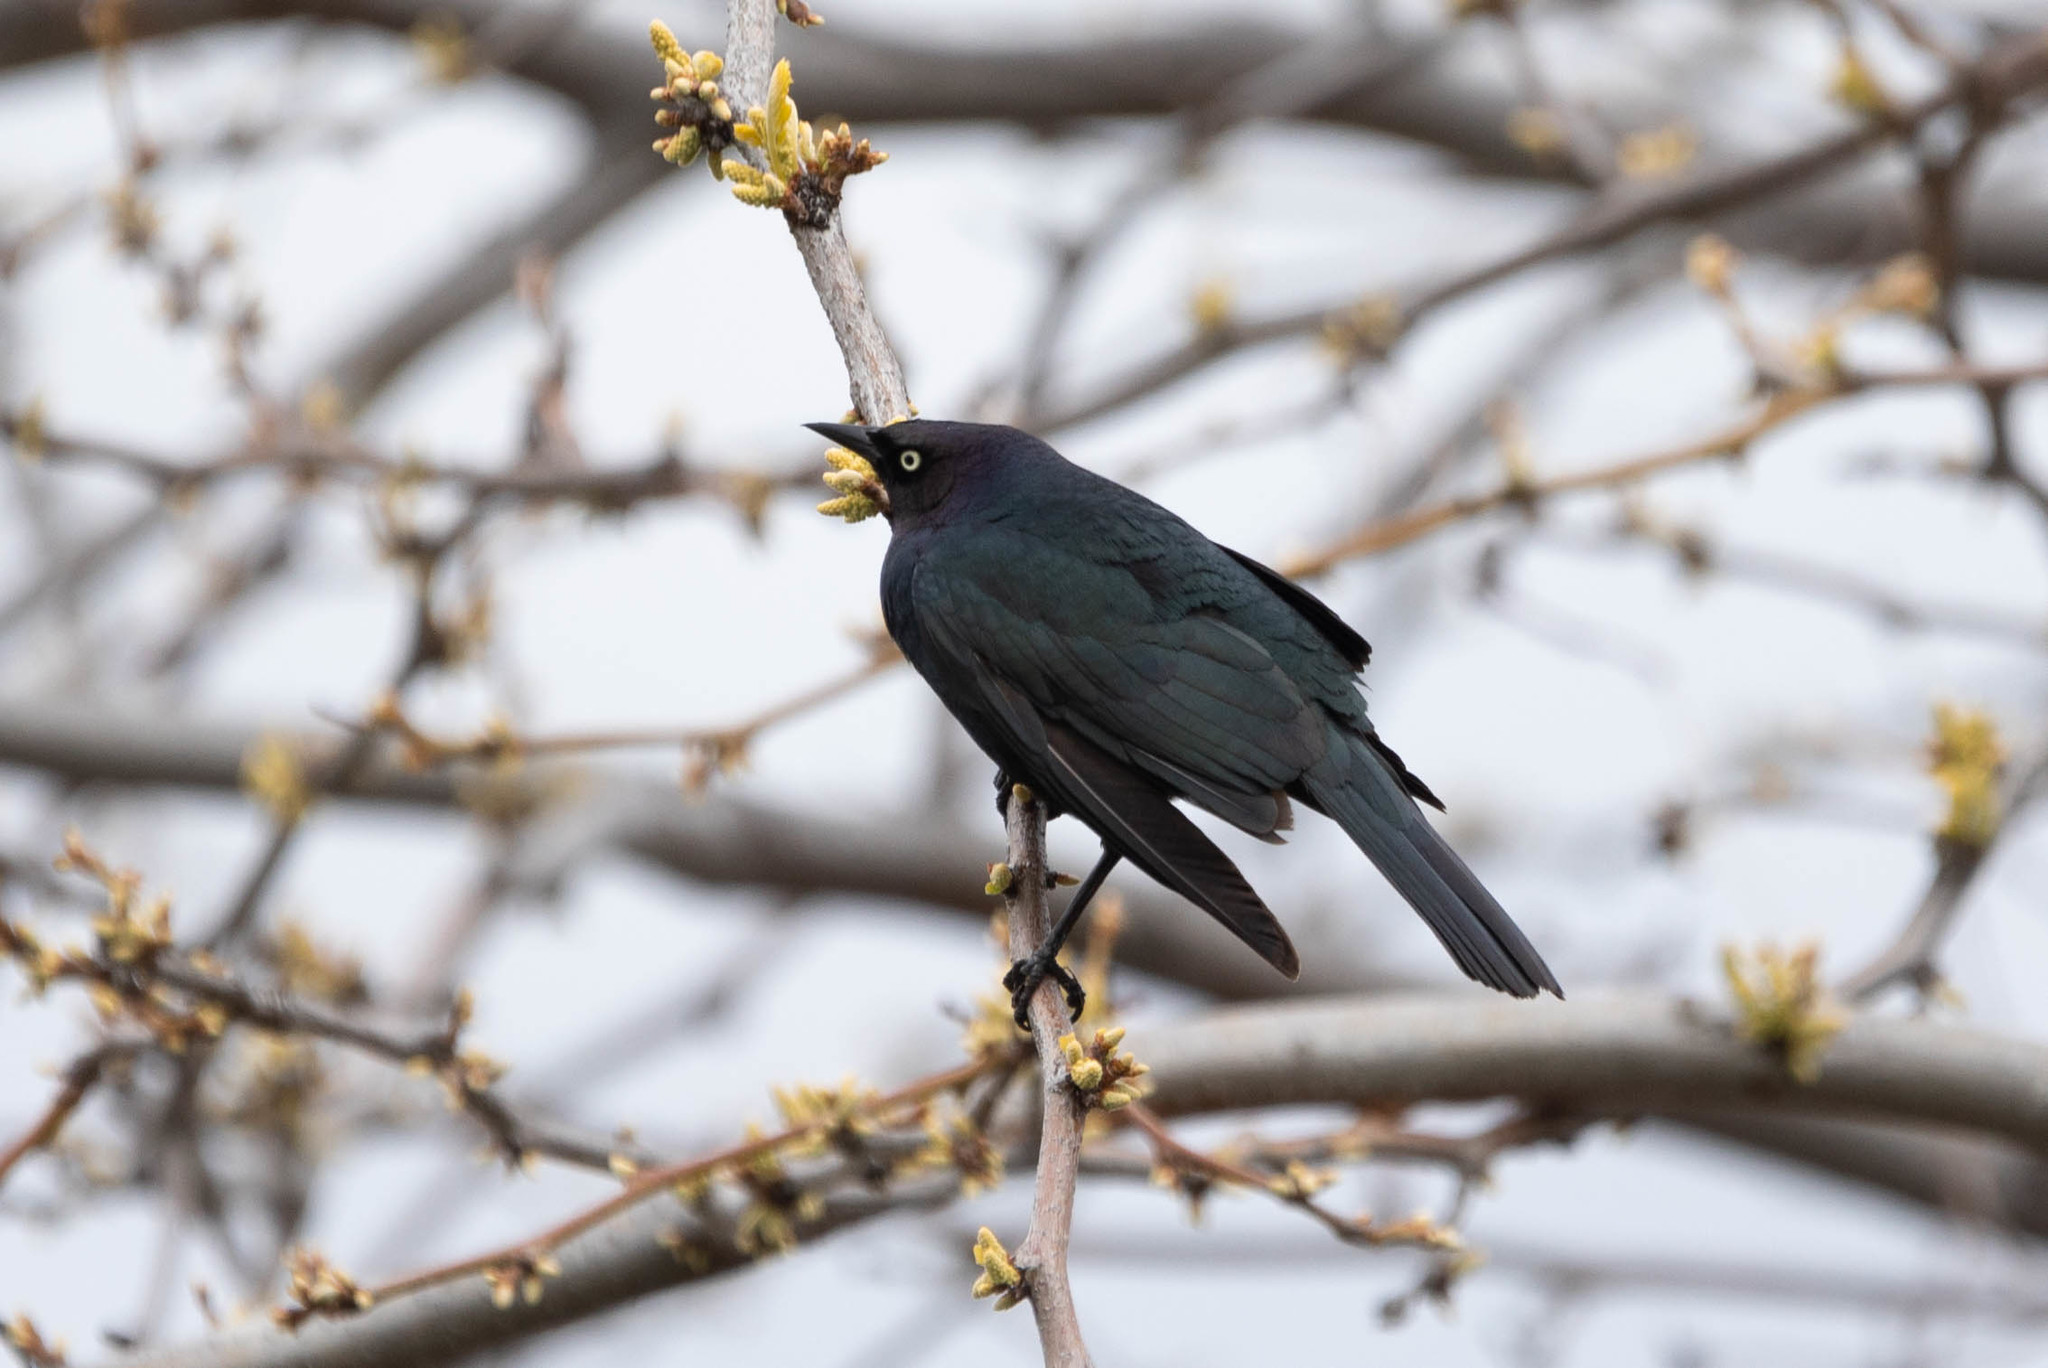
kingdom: Animalia
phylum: Chordata
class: Aves
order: Passeriformes
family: Icteridae
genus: Euphagus
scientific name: Euphagus cyanocephalus
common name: Brewer's blackbird
